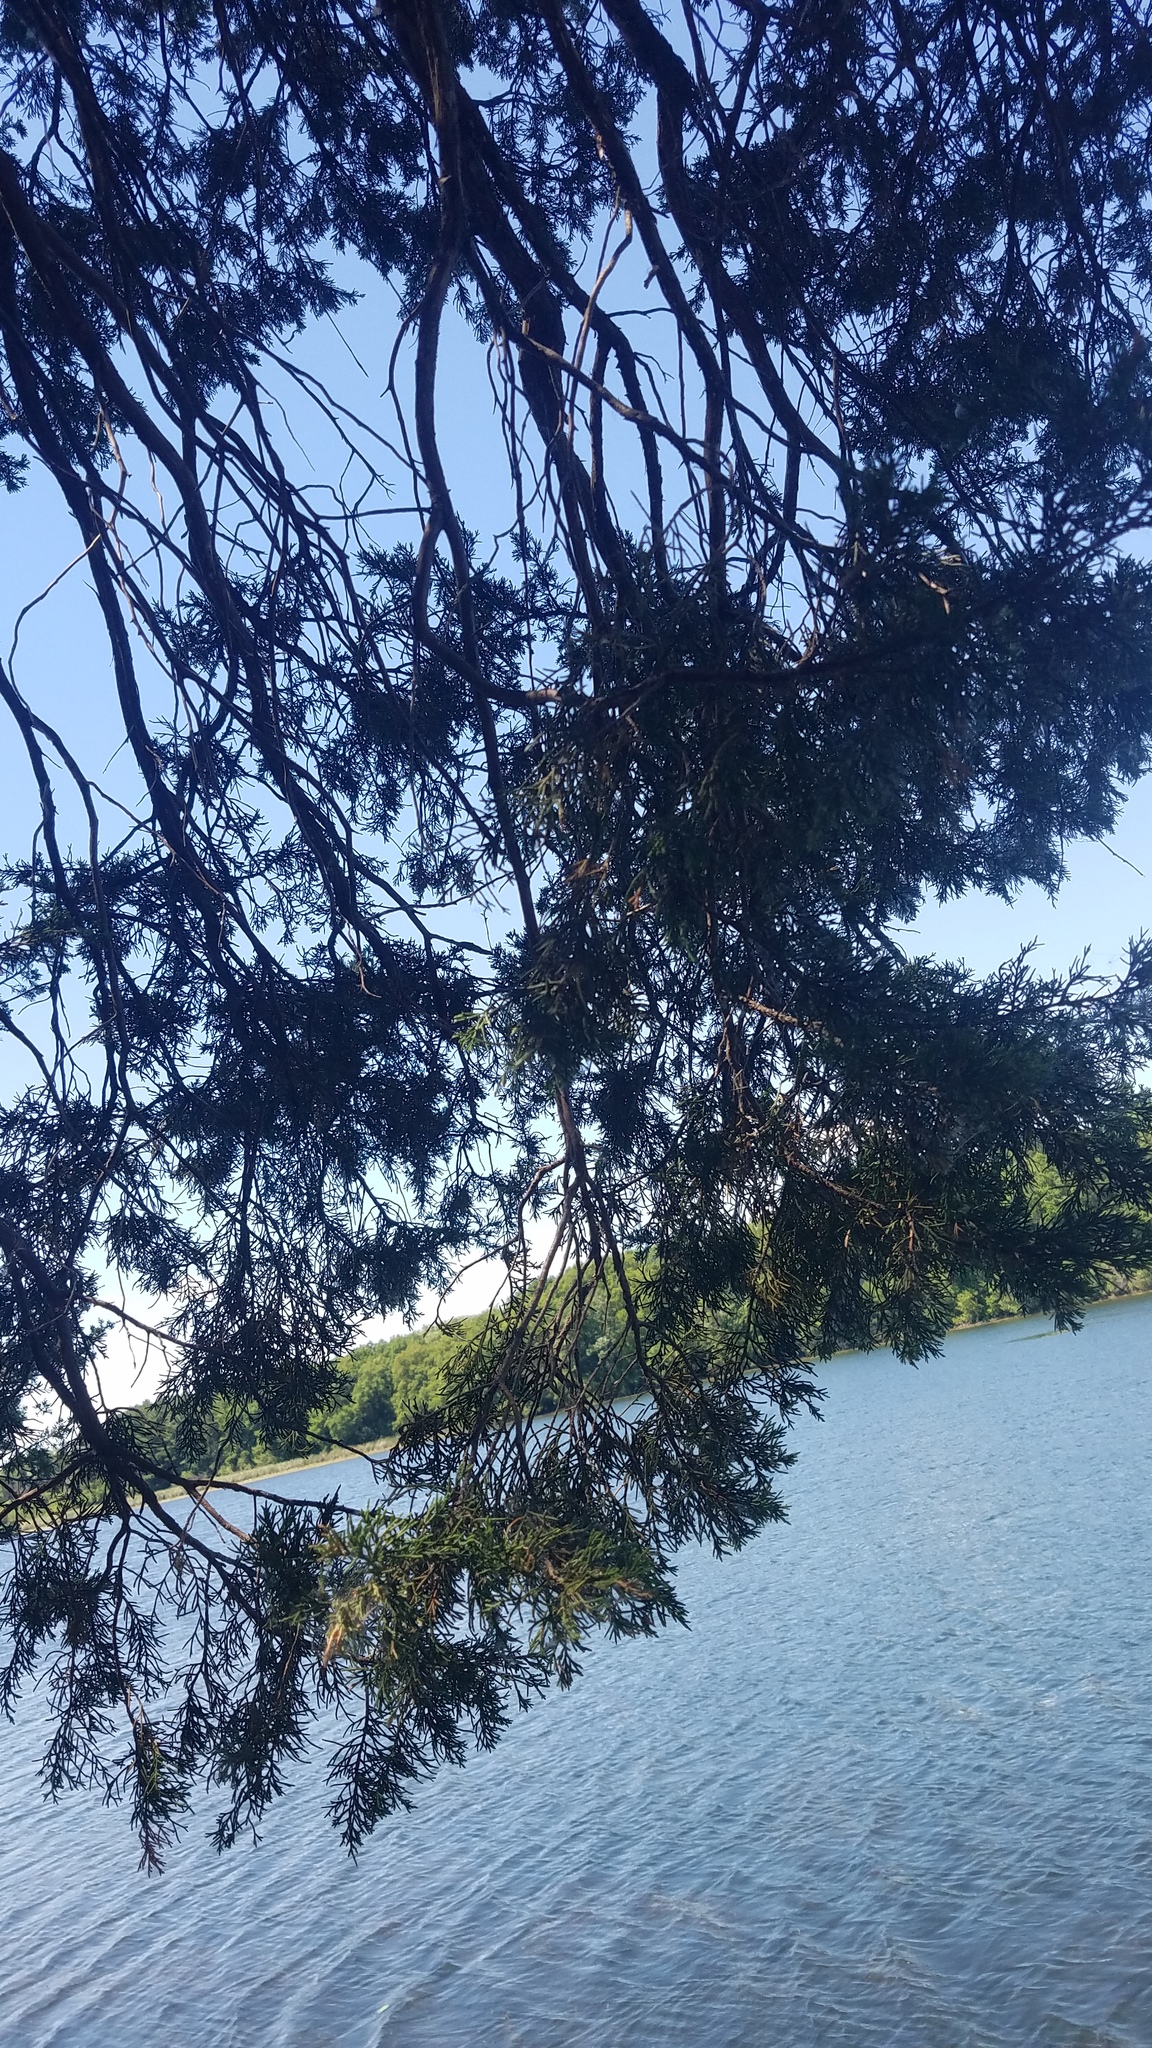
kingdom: Plantae
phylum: Tracheophyta
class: Pinopsida
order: Pinales
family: Cupressaceae
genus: Juniperus
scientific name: Juniperus virginiana
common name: Red juniper
